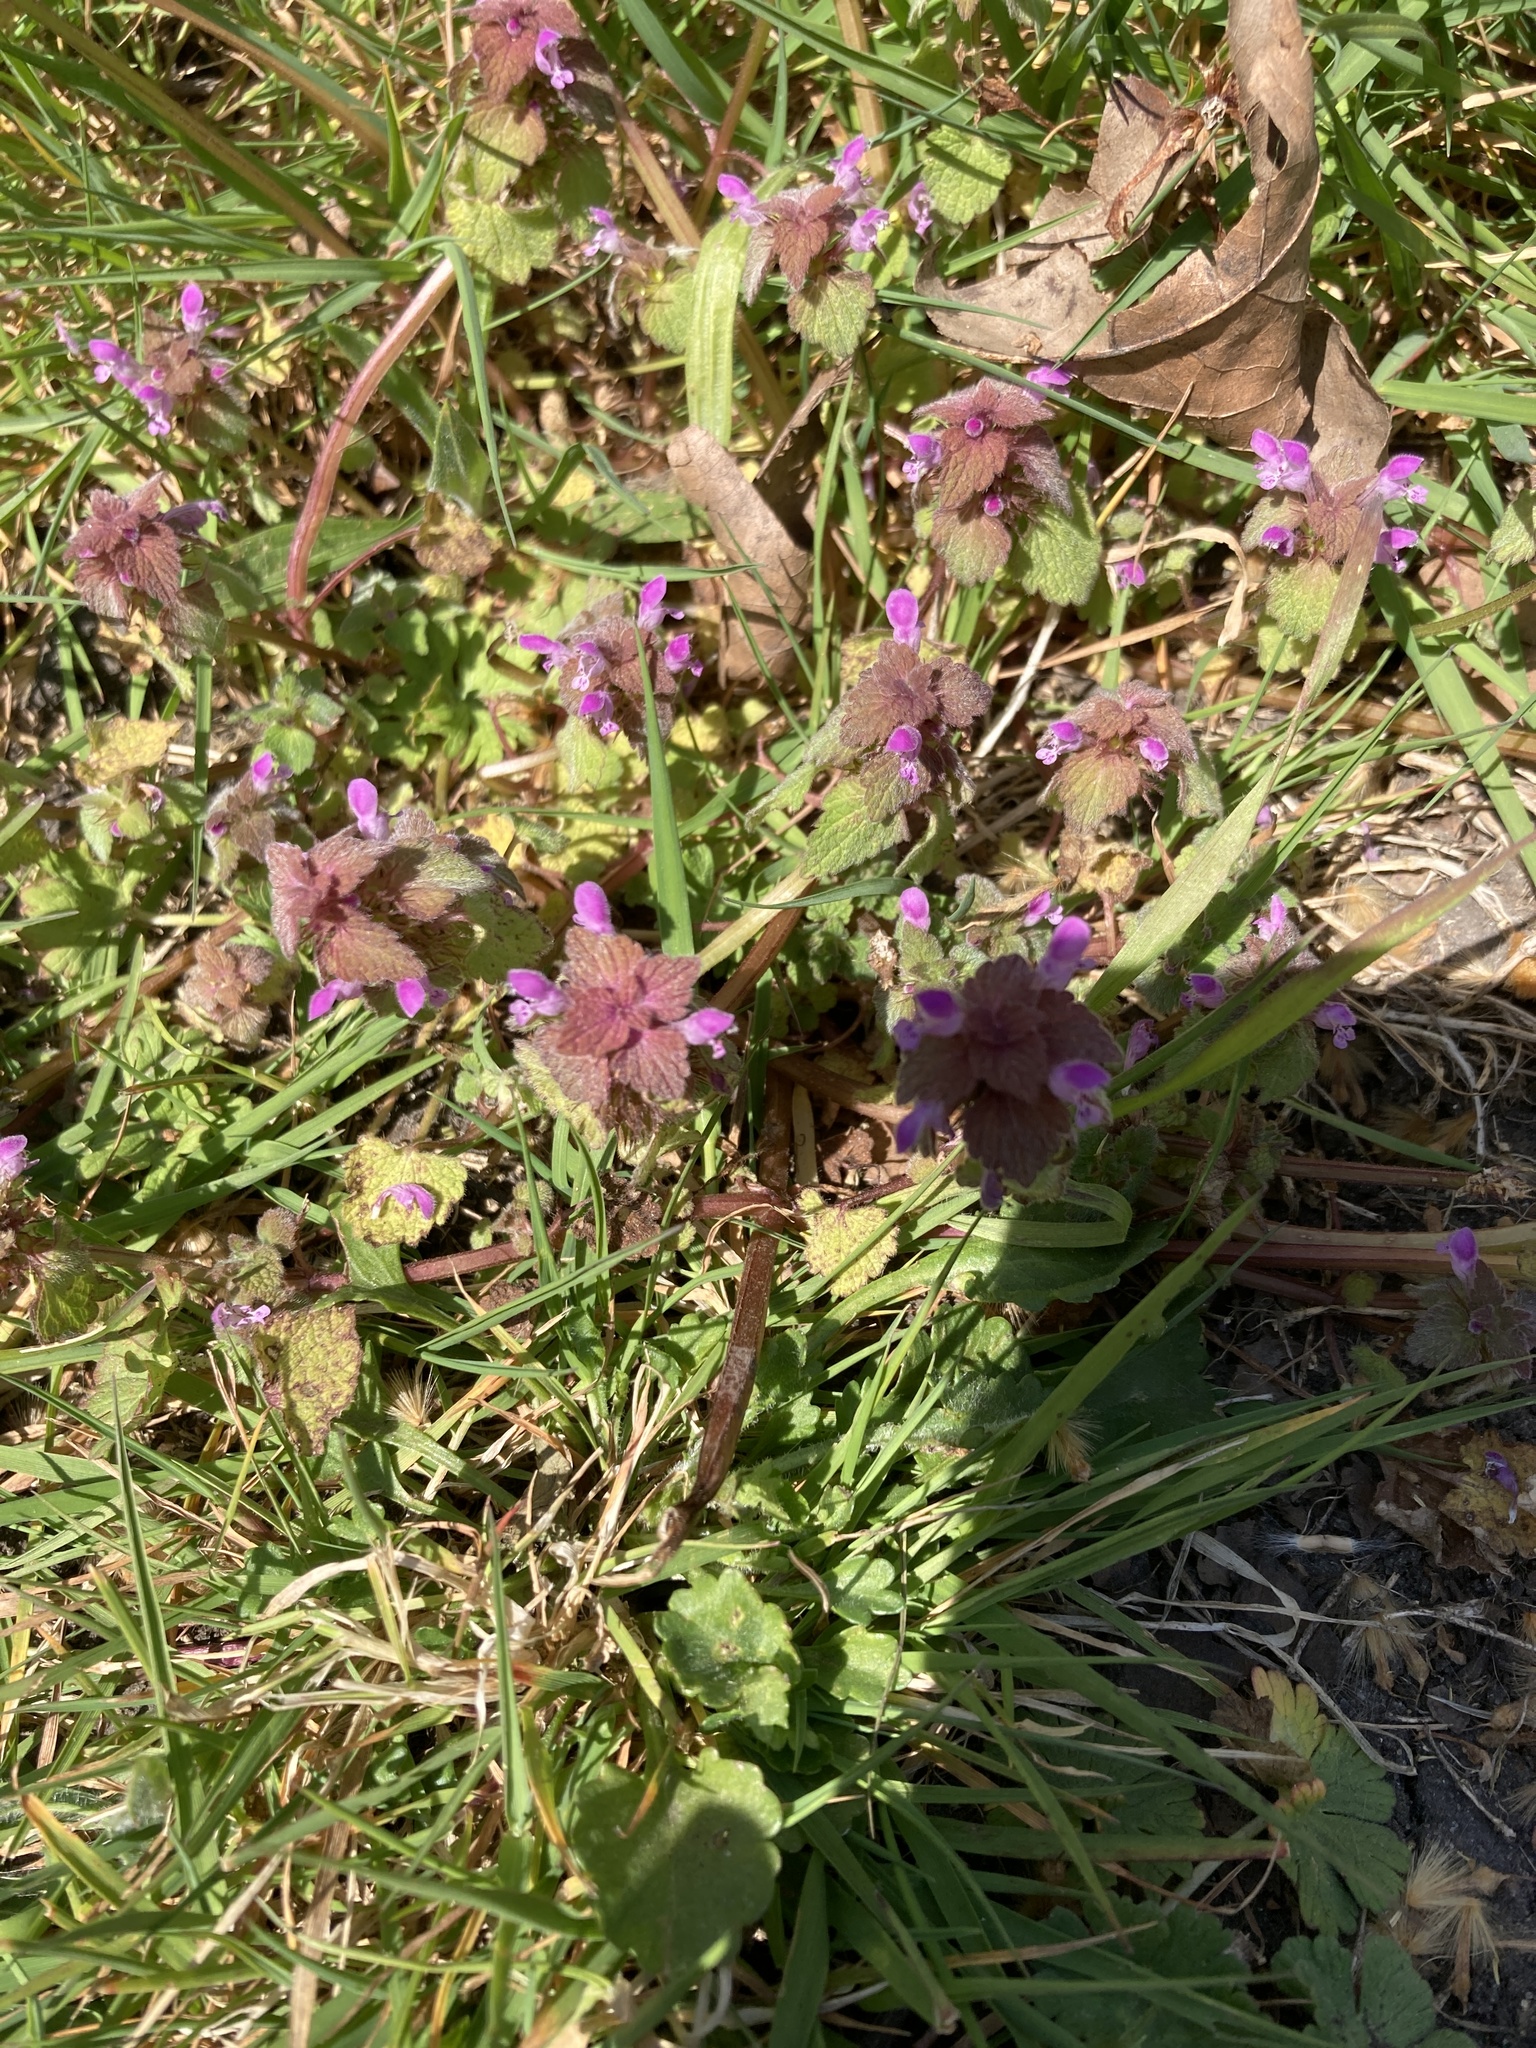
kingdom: Plantae
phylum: Tracheophyta
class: Magnoliopsida
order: Lamiales
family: Lamiaceae
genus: Lamium
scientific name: Lamium purpureum
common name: Red dead-nettle
